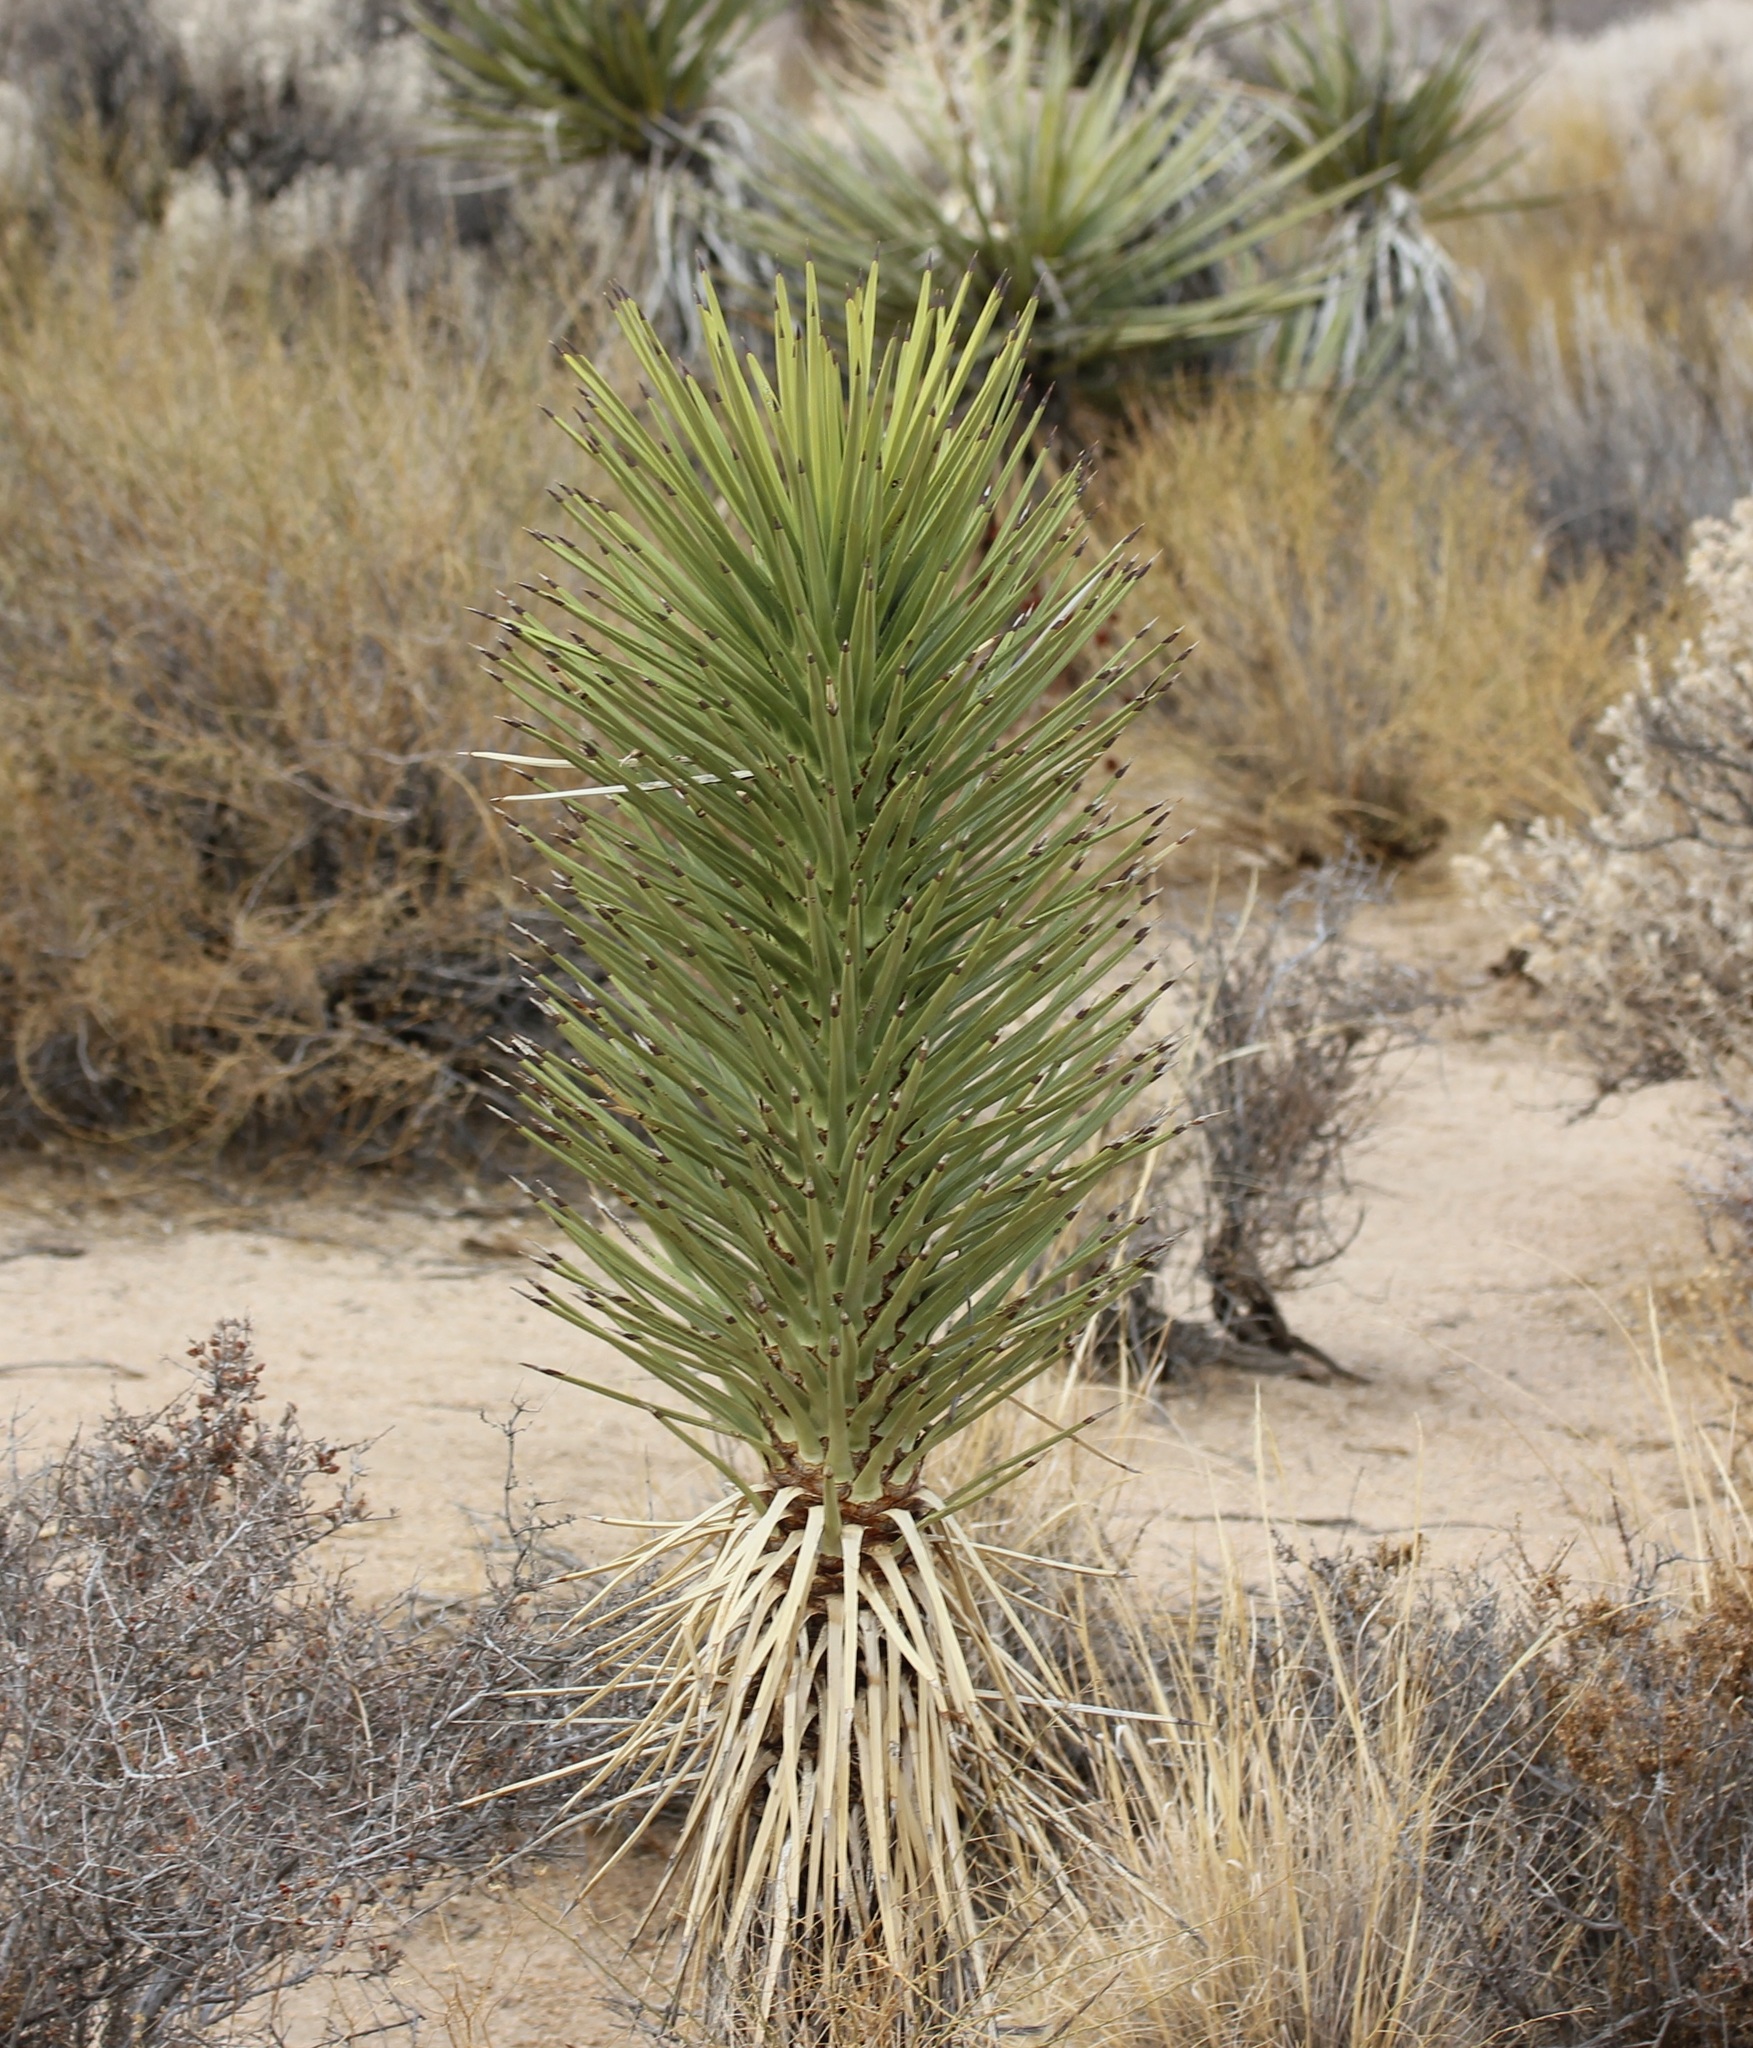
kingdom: Plantae
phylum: Tracheophyta
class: Liliopsida
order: Asparagales
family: Asparagaceae
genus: Yucca
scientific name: Yucca brevifolia
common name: Joshua tree
